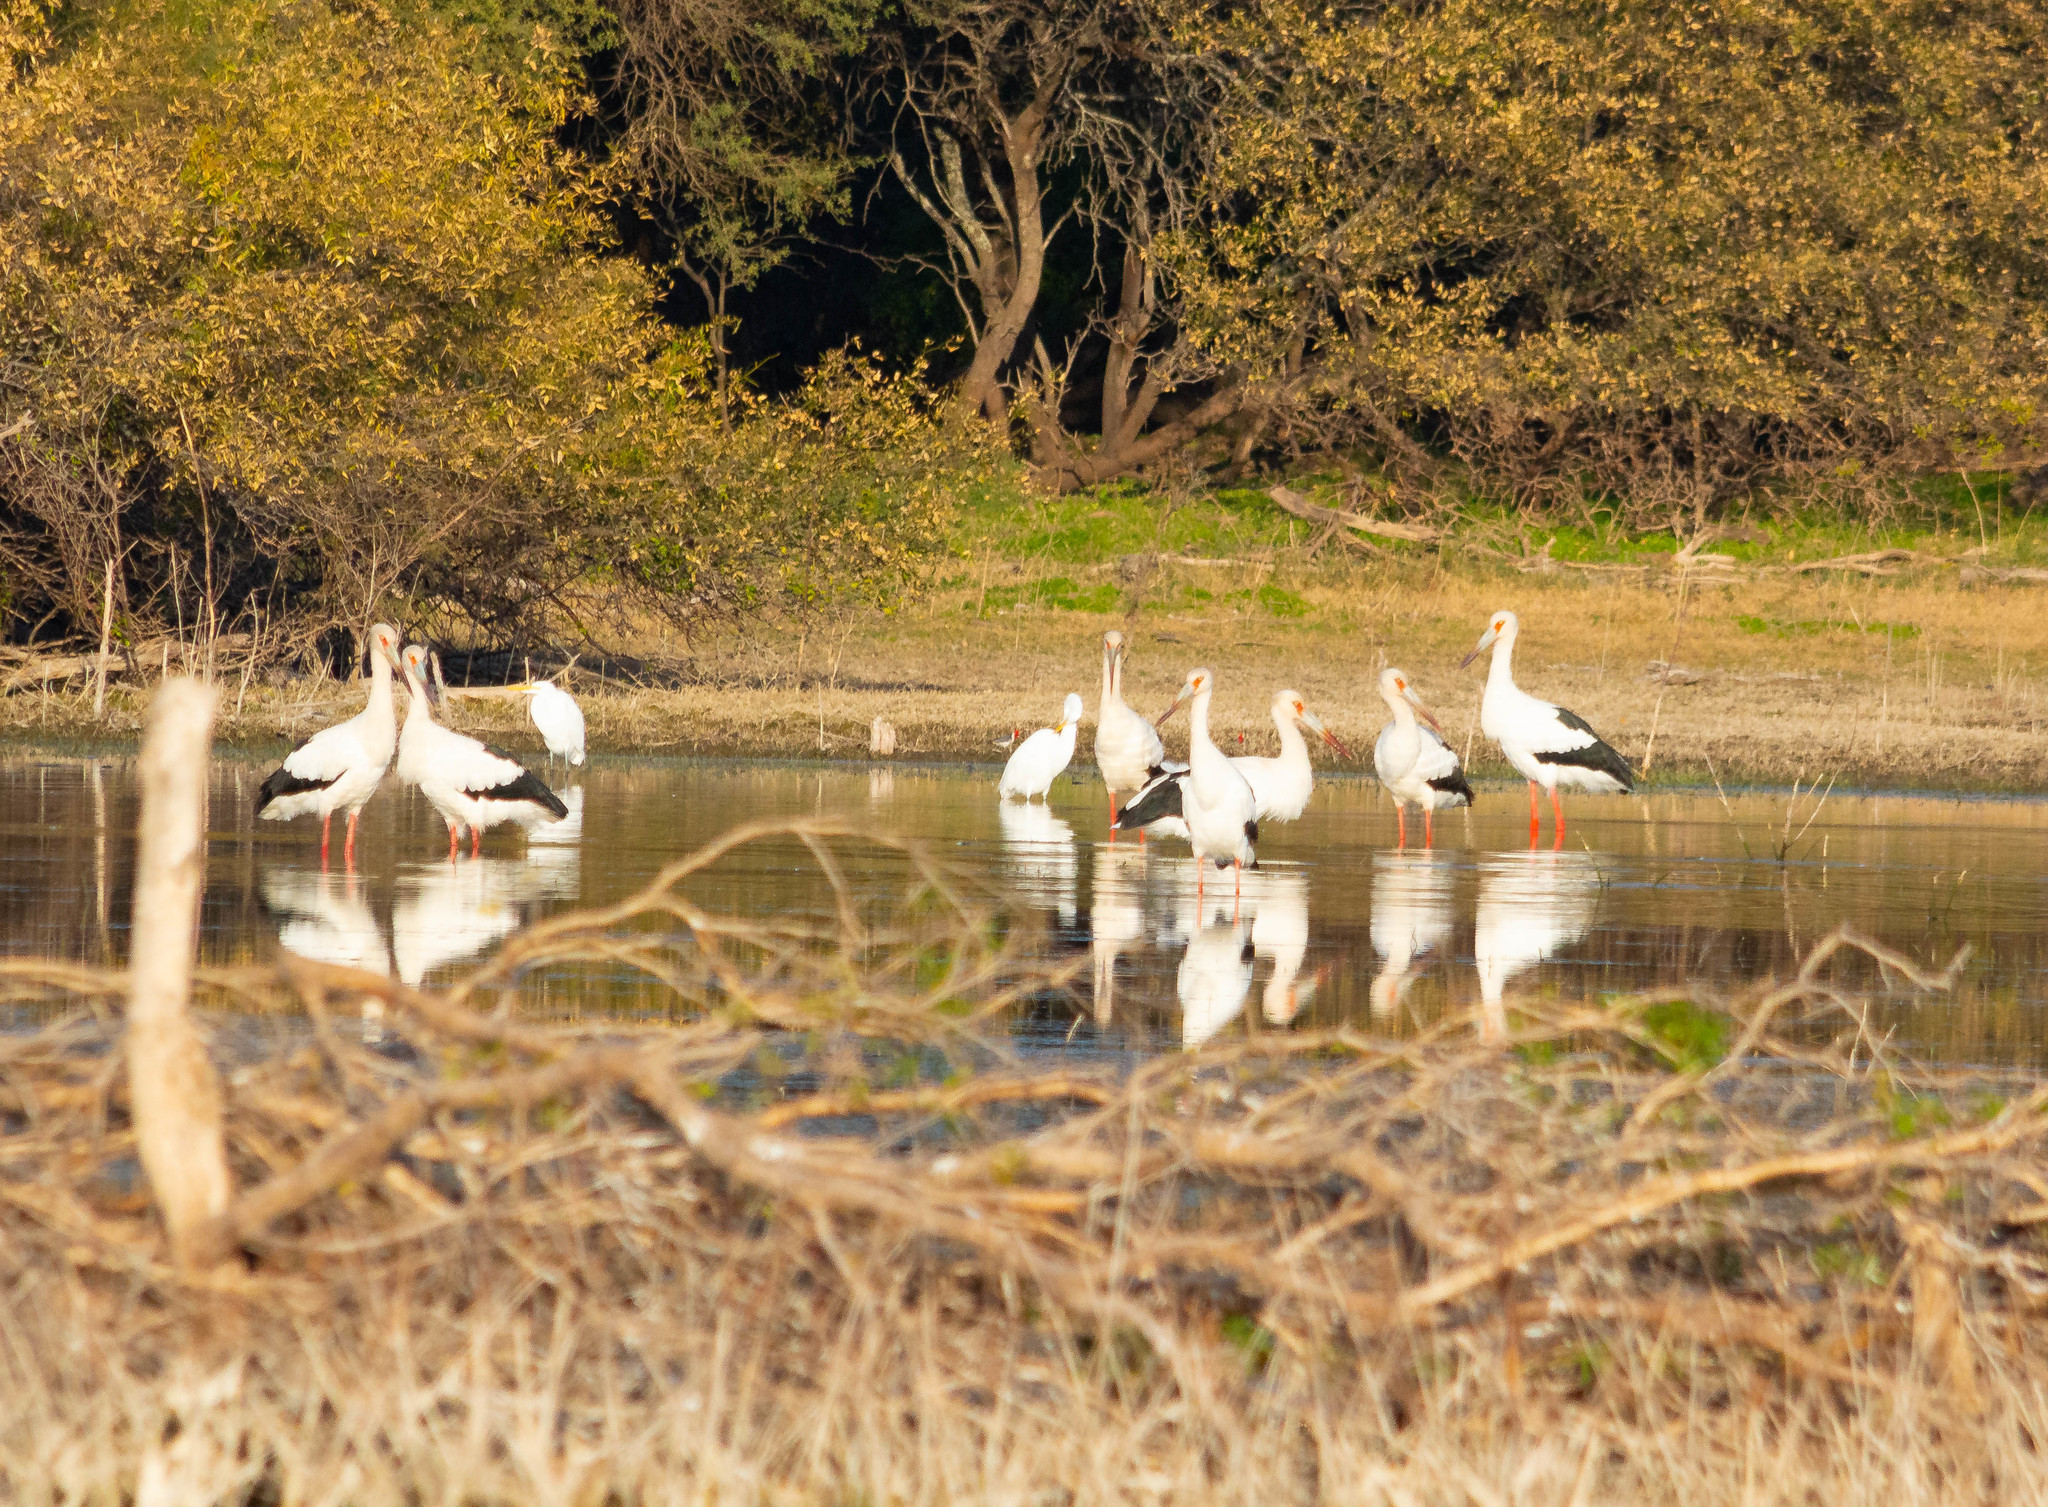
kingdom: Animalia
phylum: Chordata
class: Aves
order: Ciconiiformes
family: Ciconiidae
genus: Ciconia
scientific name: Ciconia maguari
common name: Maguari stork
